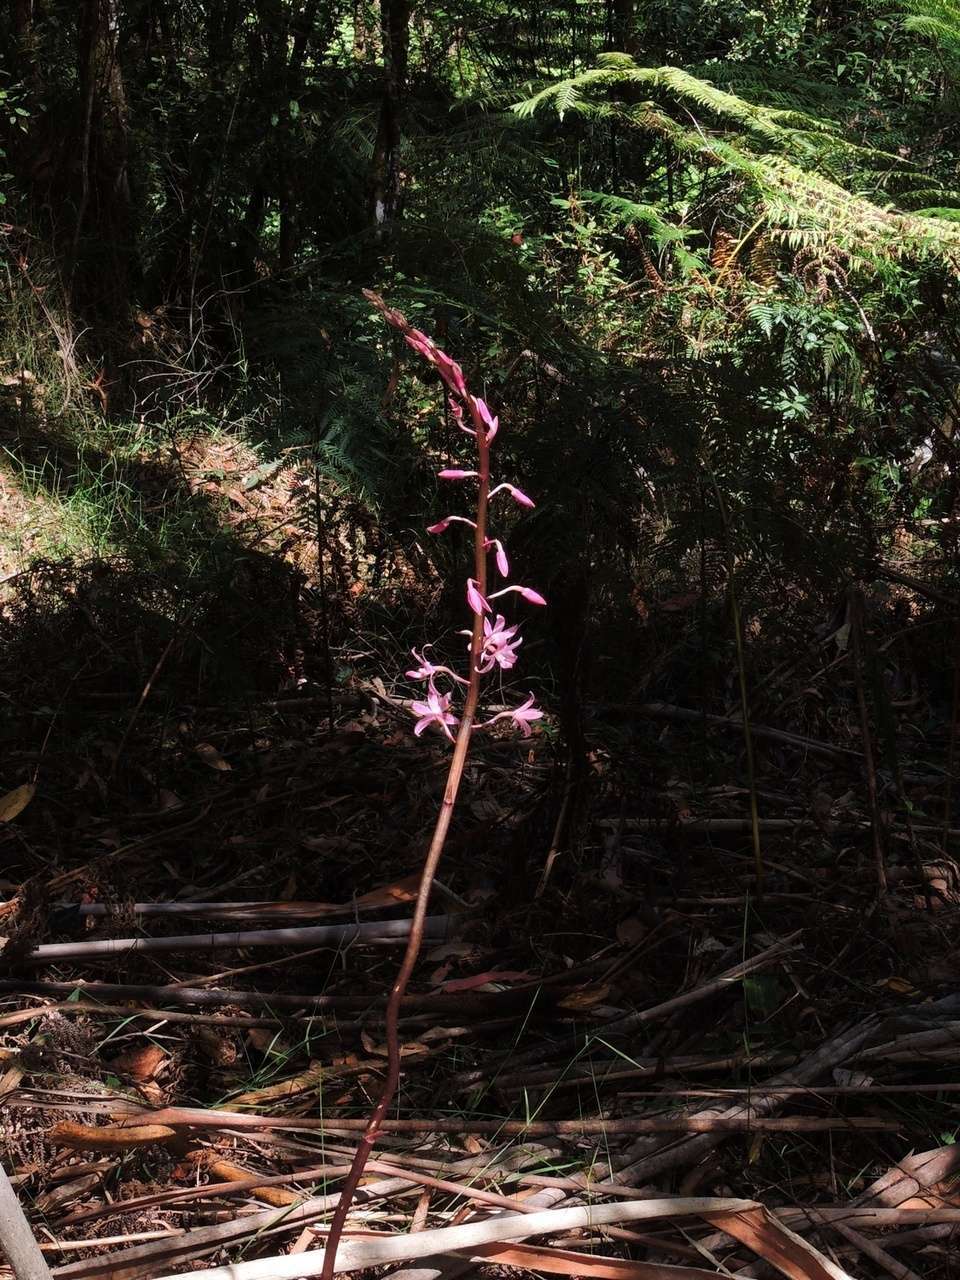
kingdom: Plantae
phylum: Tracheophyta
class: Liliopsida
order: Asparagales
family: Orchidaceae
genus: Dipodium
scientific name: Dipodium roseum
